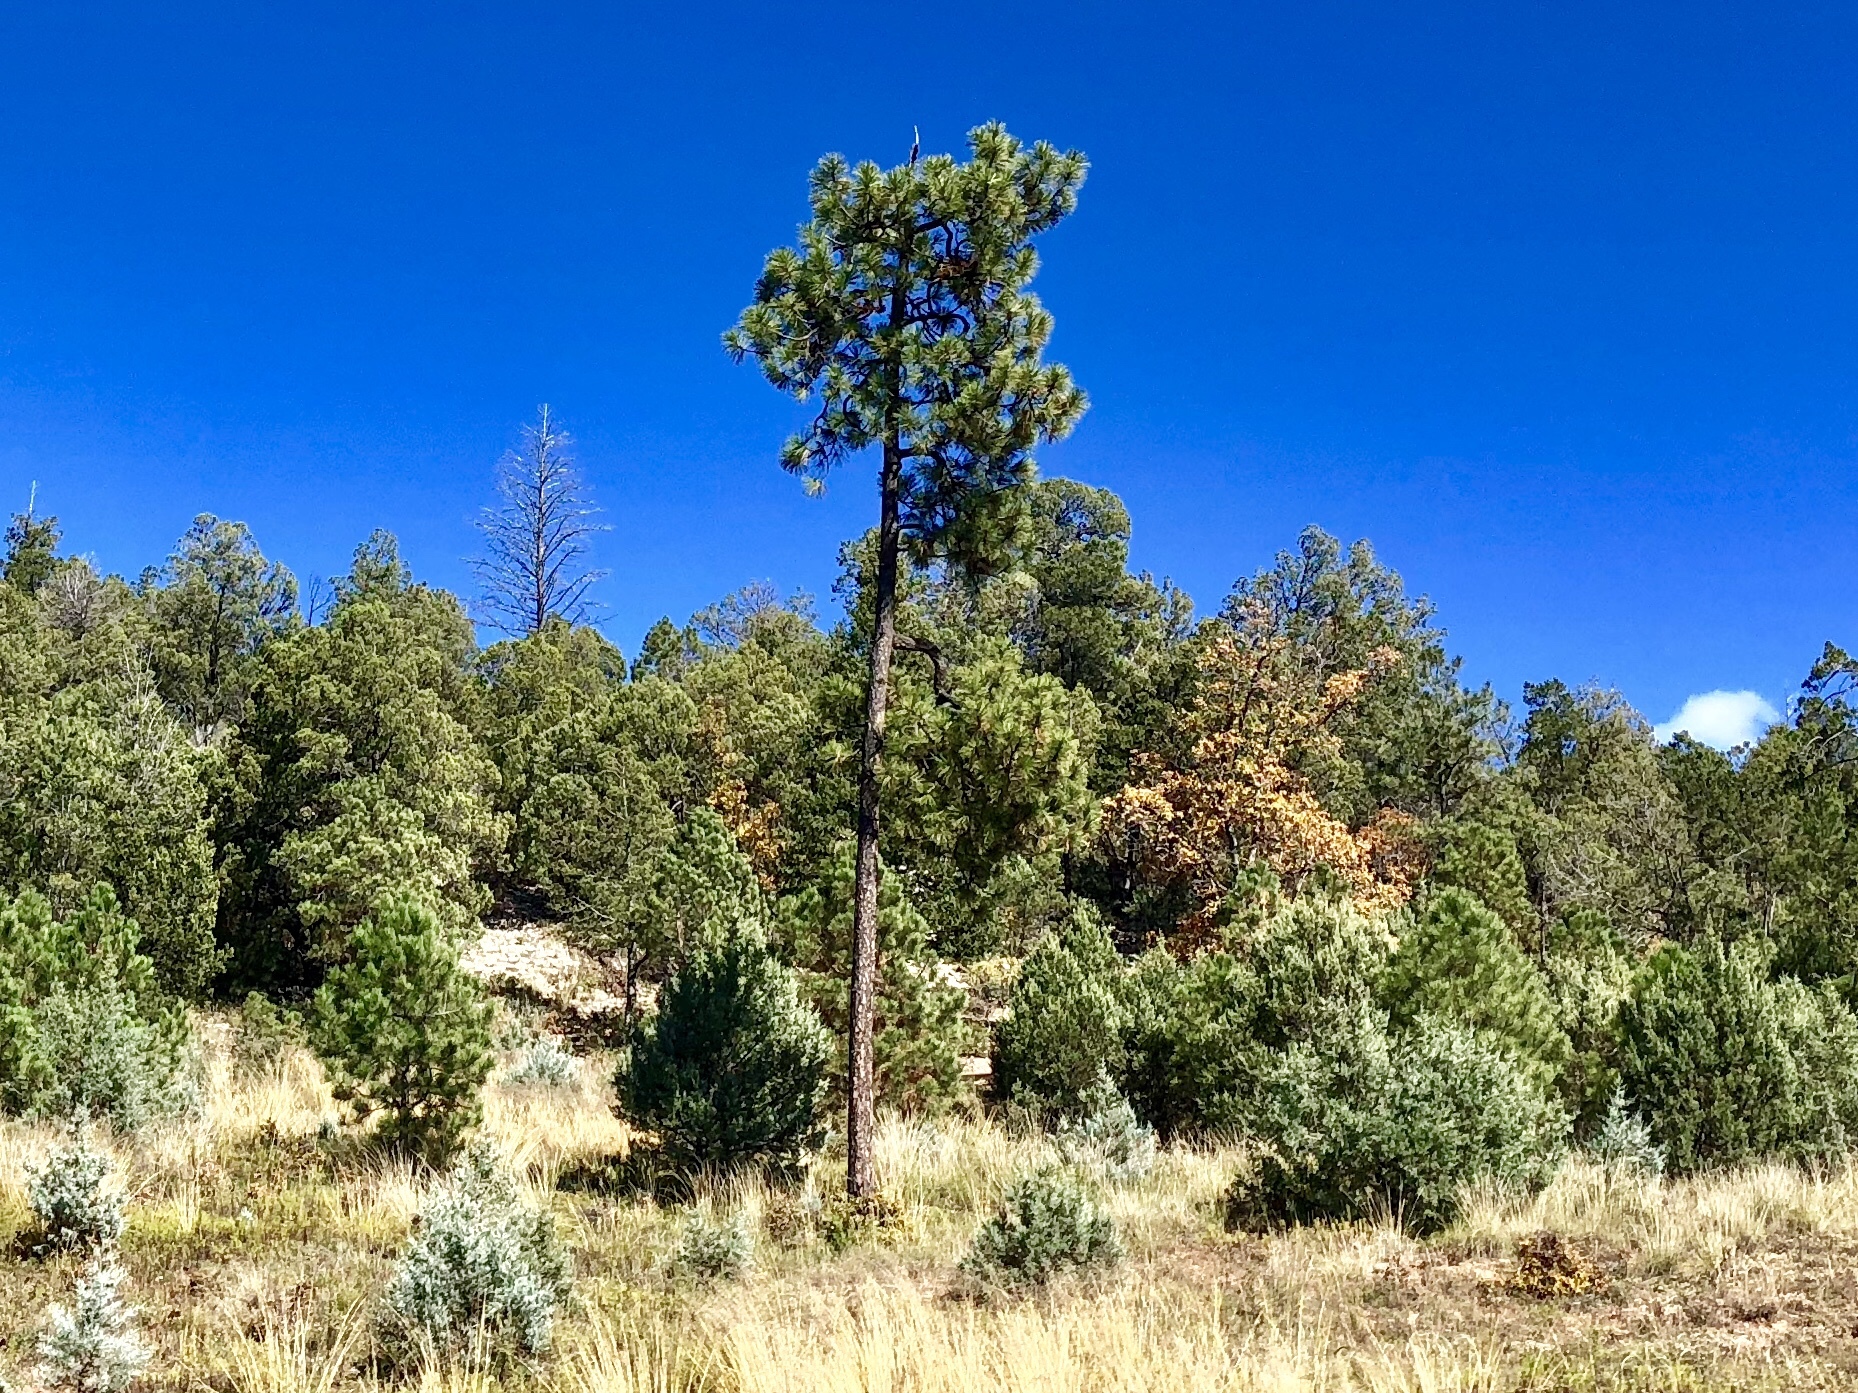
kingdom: Plantae
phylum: Tracheophyta
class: Pinopsida
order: Pinales
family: Pinaceae
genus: Pinus
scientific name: Pinus ponderosa
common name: Western yellow-pine
